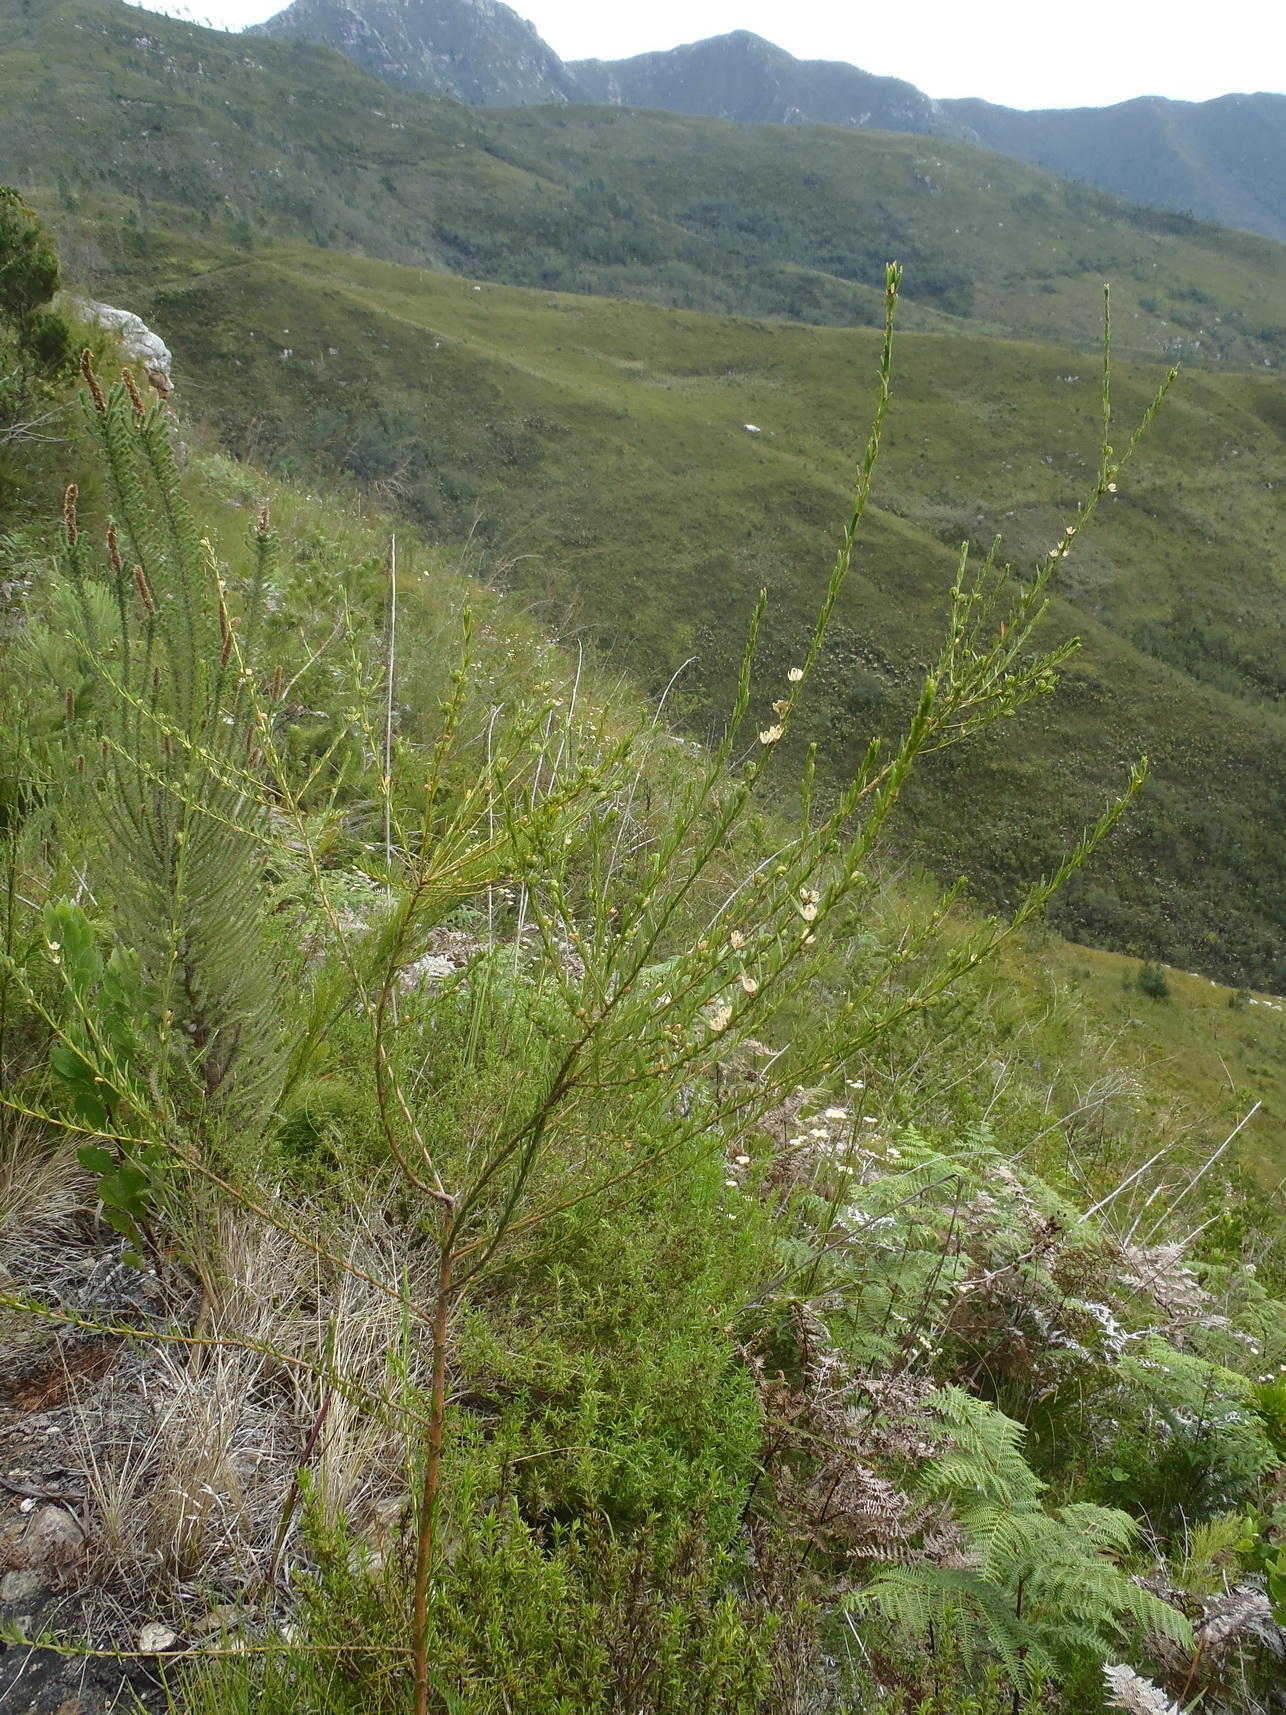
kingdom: Plantae
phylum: Tracheophyta
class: Magnoliopsida
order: Malpighiales
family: Peraceae
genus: Clutia
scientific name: Clutia ericoides
